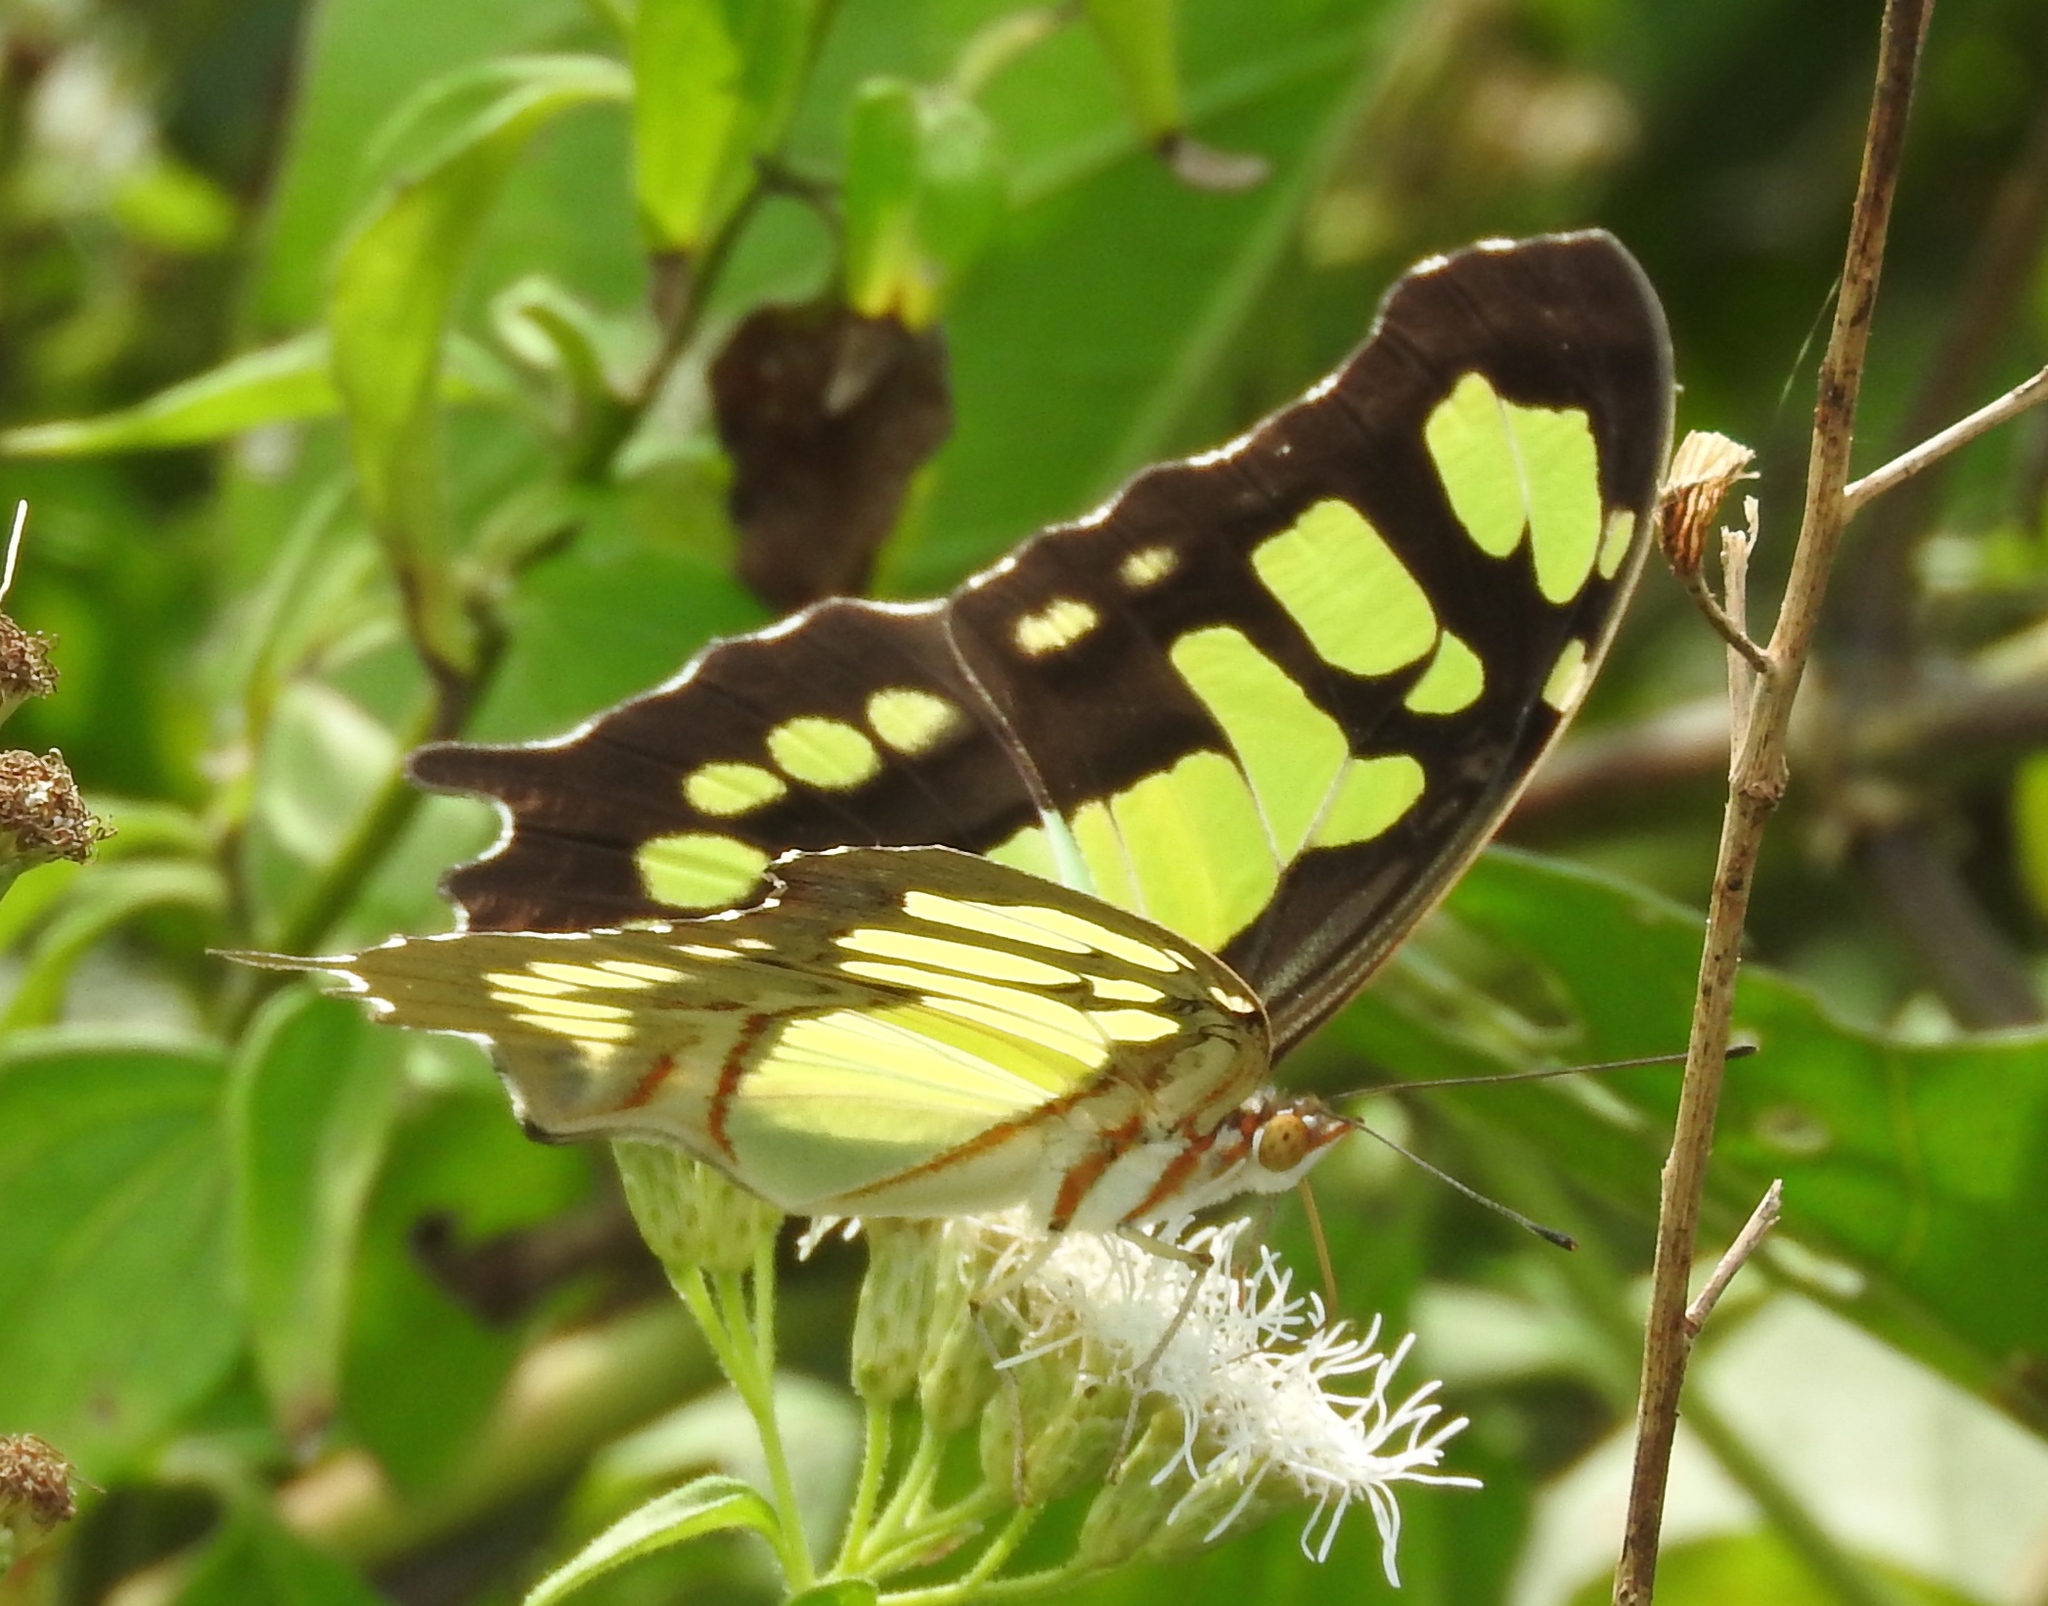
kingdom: Animalia
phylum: Arthropoda
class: Insecta
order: Lepidoptera
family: Nymphalidae
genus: Siproeta
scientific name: Siproeta stelenes
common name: Malachite
